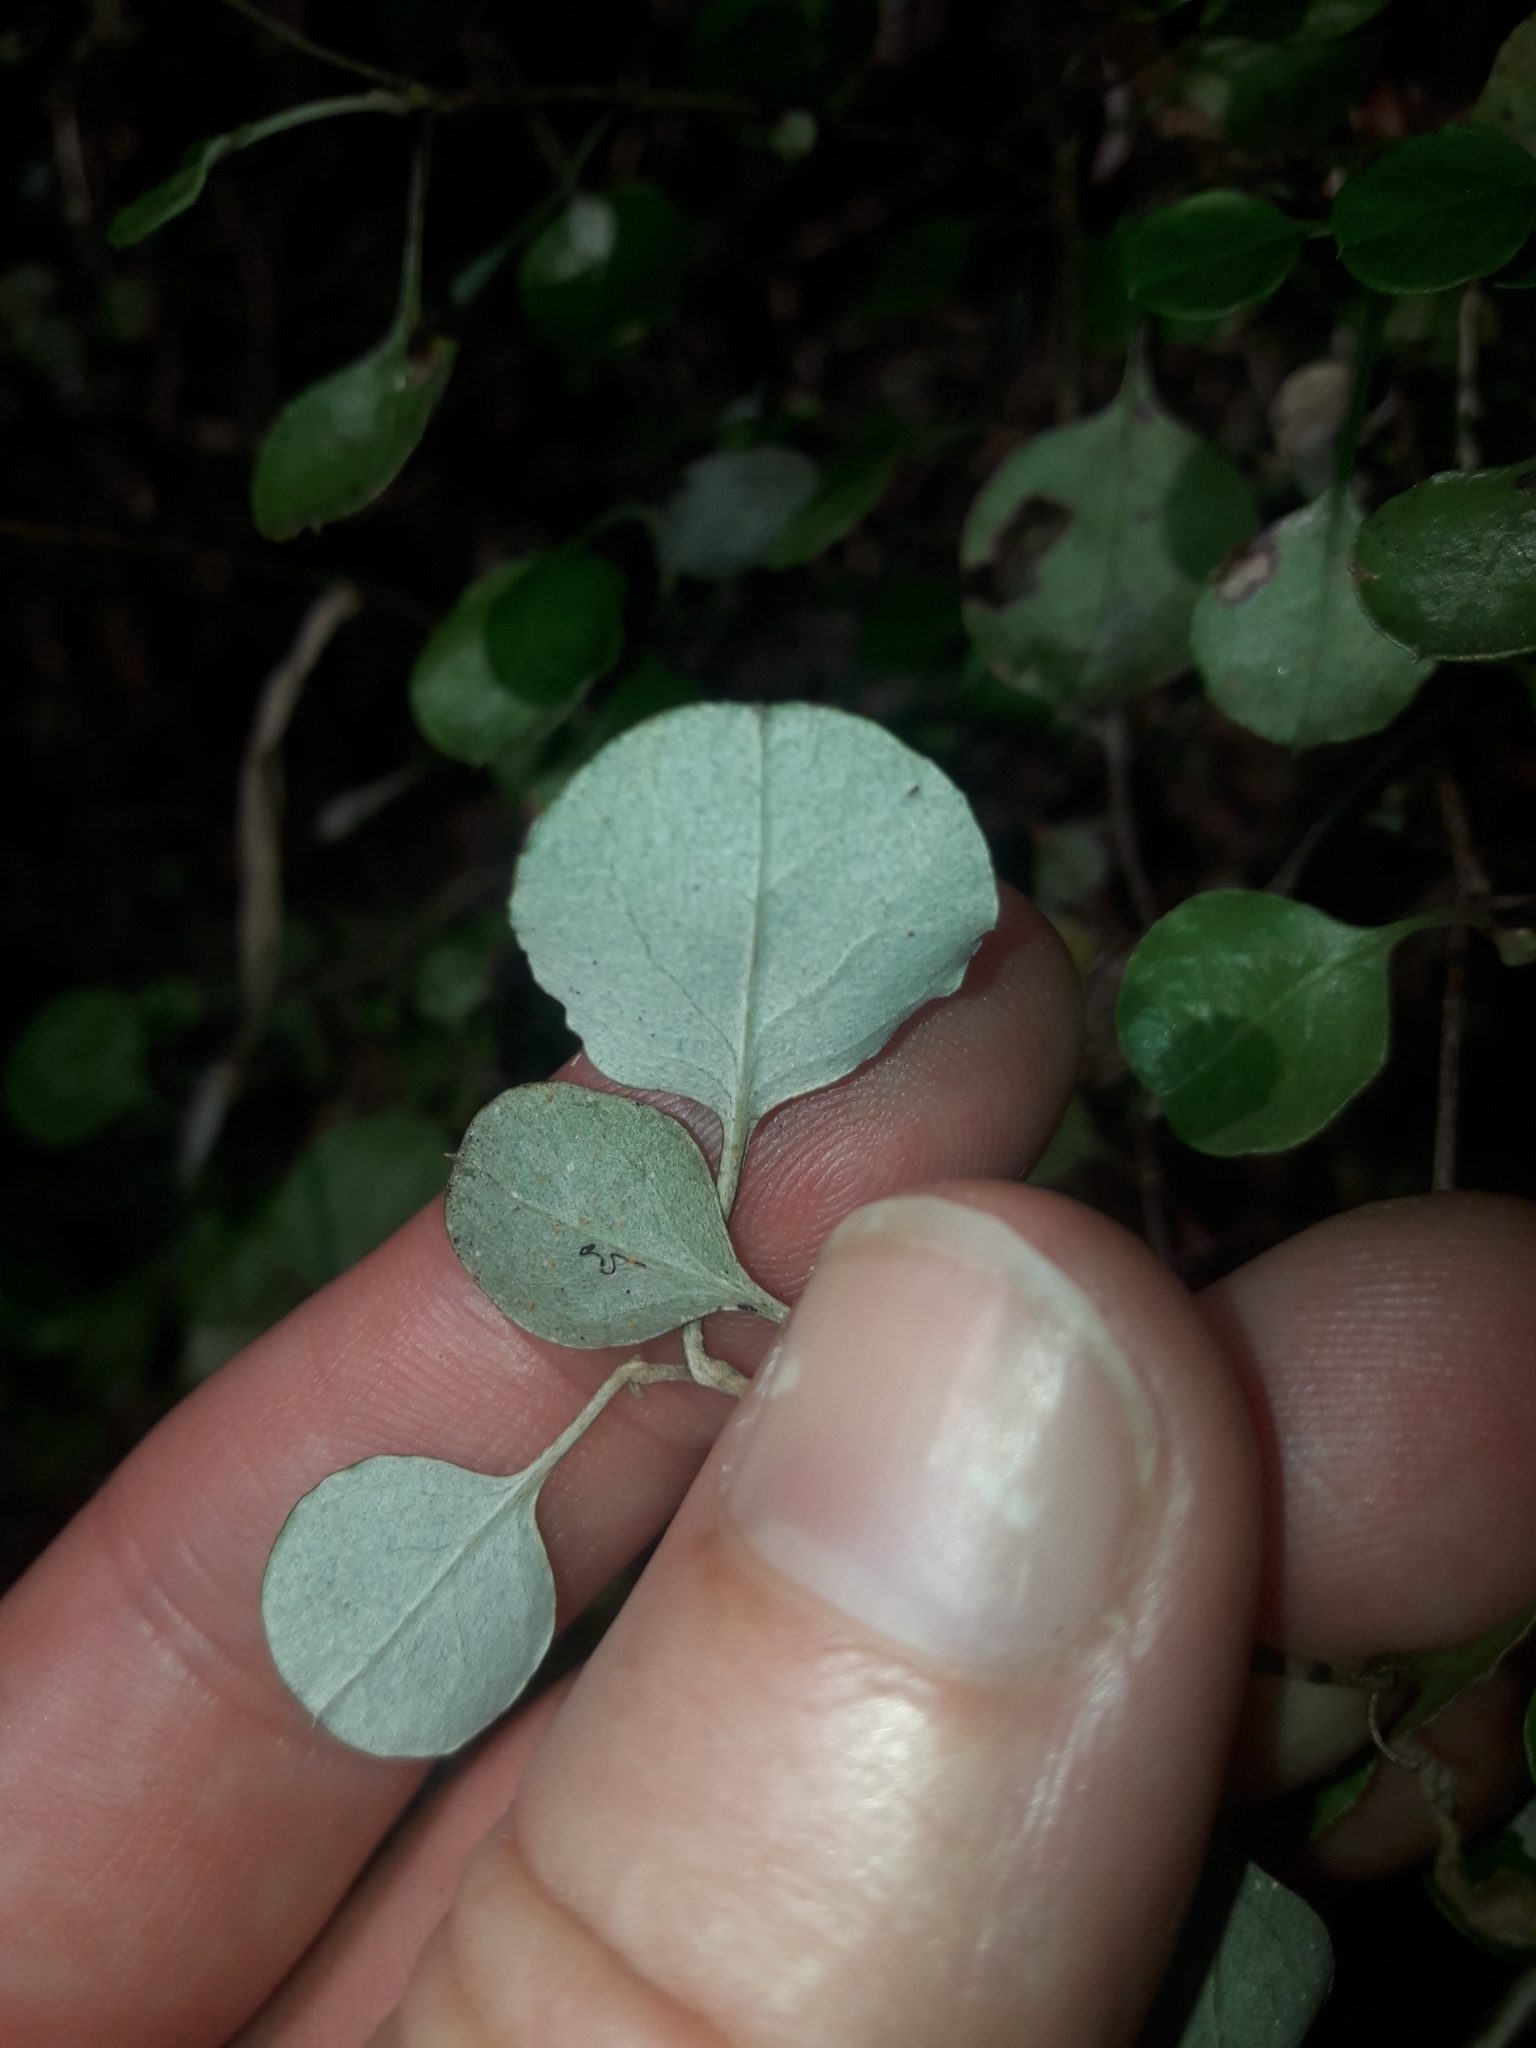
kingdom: Plantae
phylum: Tracheophyta
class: Magnoliopsida
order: Asterales
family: Asteraceae
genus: Ozothamnus
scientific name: Ozothamnus glomeratus
